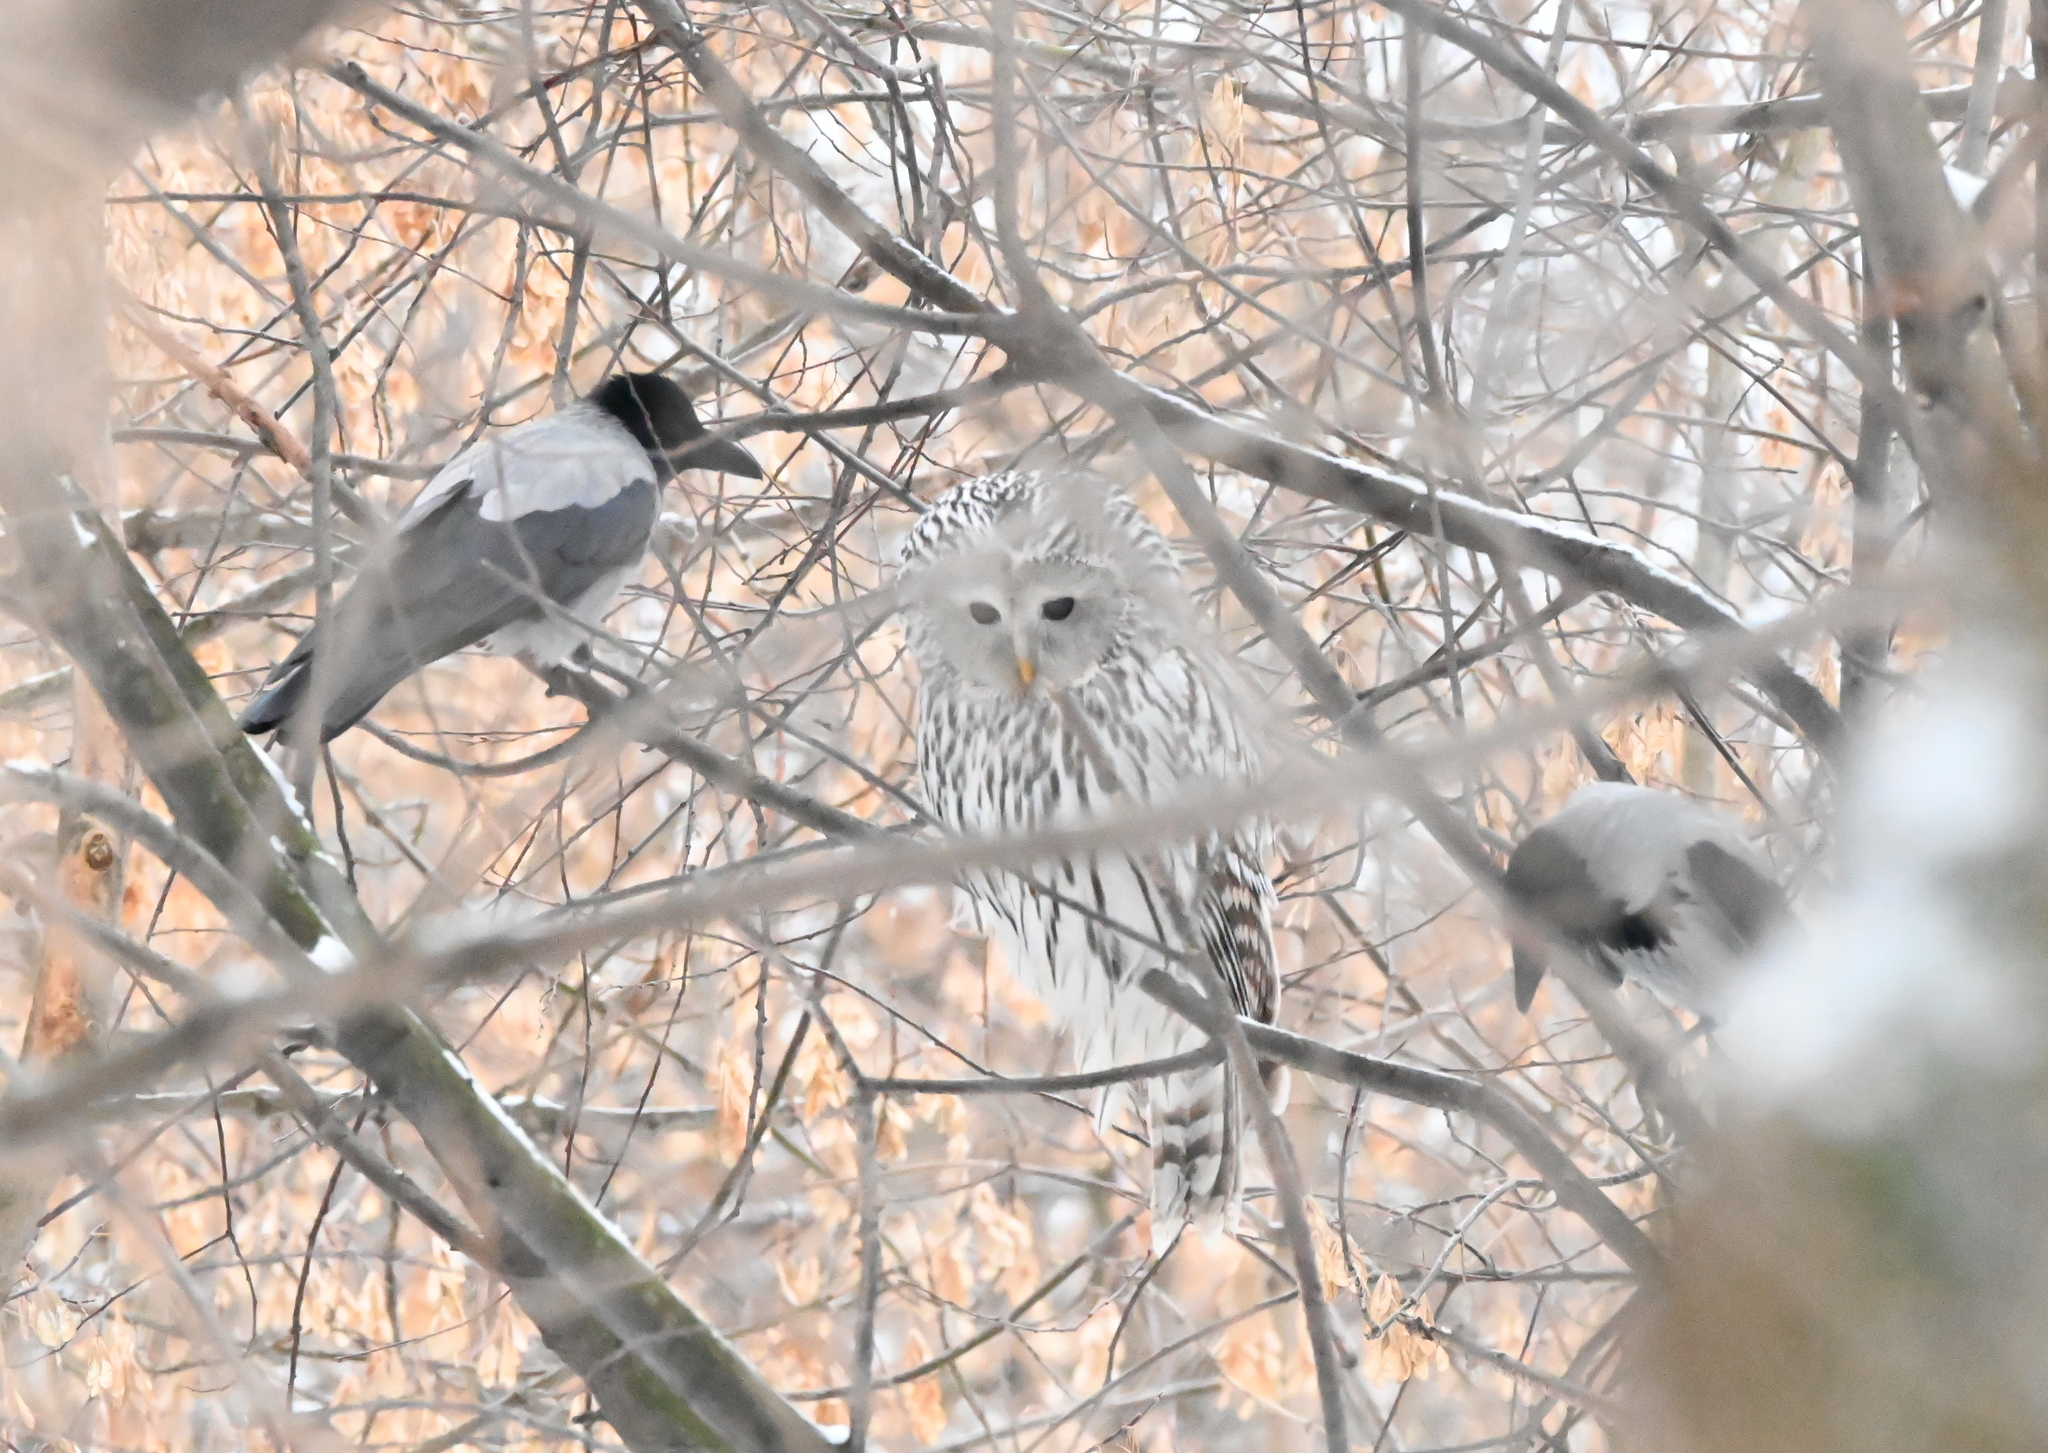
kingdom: Animalia
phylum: Chordata
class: Aves
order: Strigiformes
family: Strigidae
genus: Strix
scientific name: Strix uralensis
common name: Ural owl
